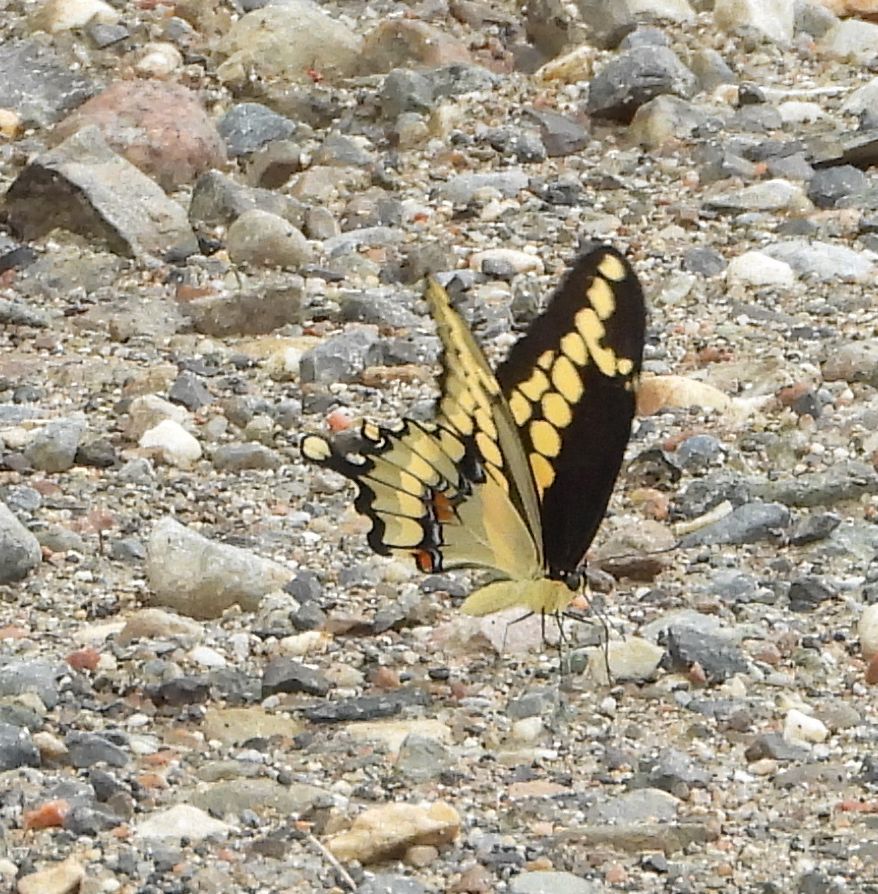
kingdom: Animalia
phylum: Arthropoda
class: Insecta
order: Lepidoptera
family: Papilionidae
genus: Papilio
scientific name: Papilio cresphontes
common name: Giant swallowtail
